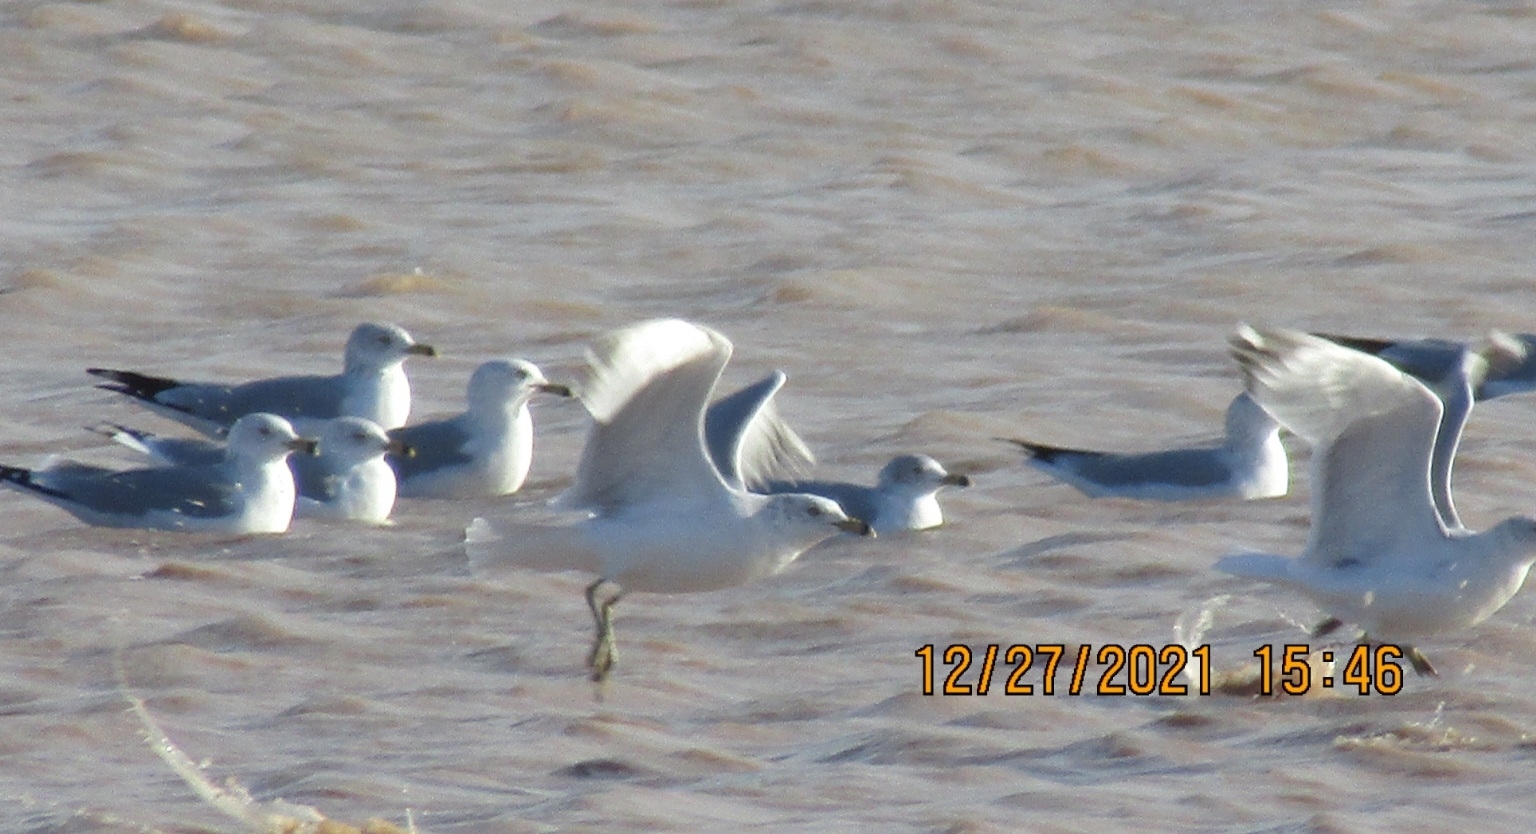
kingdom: Animalia
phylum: Chordata
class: Aves
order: Charadriiformes
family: Laridae
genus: Larus
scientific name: Larus delawarensis
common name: Ring-billed gull
